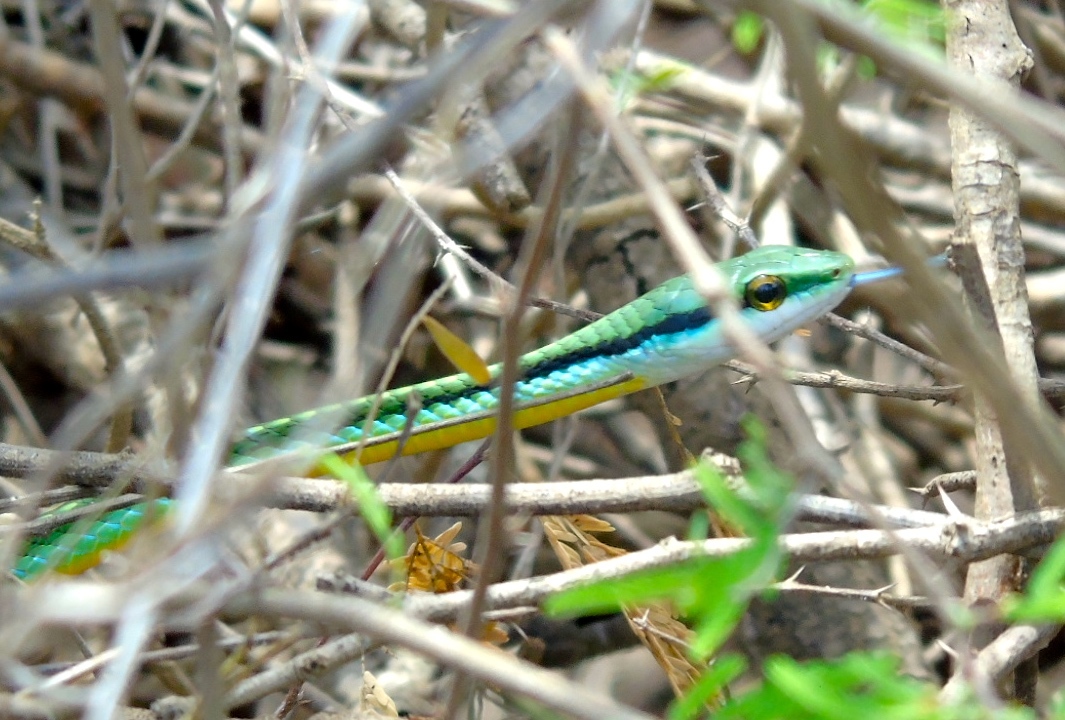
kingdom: Animalia
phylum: Chordata
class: Squamata
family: Colubridae
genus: Leptophis
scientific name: Leptophis diplotropis
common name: Pacific coast parrot snake
